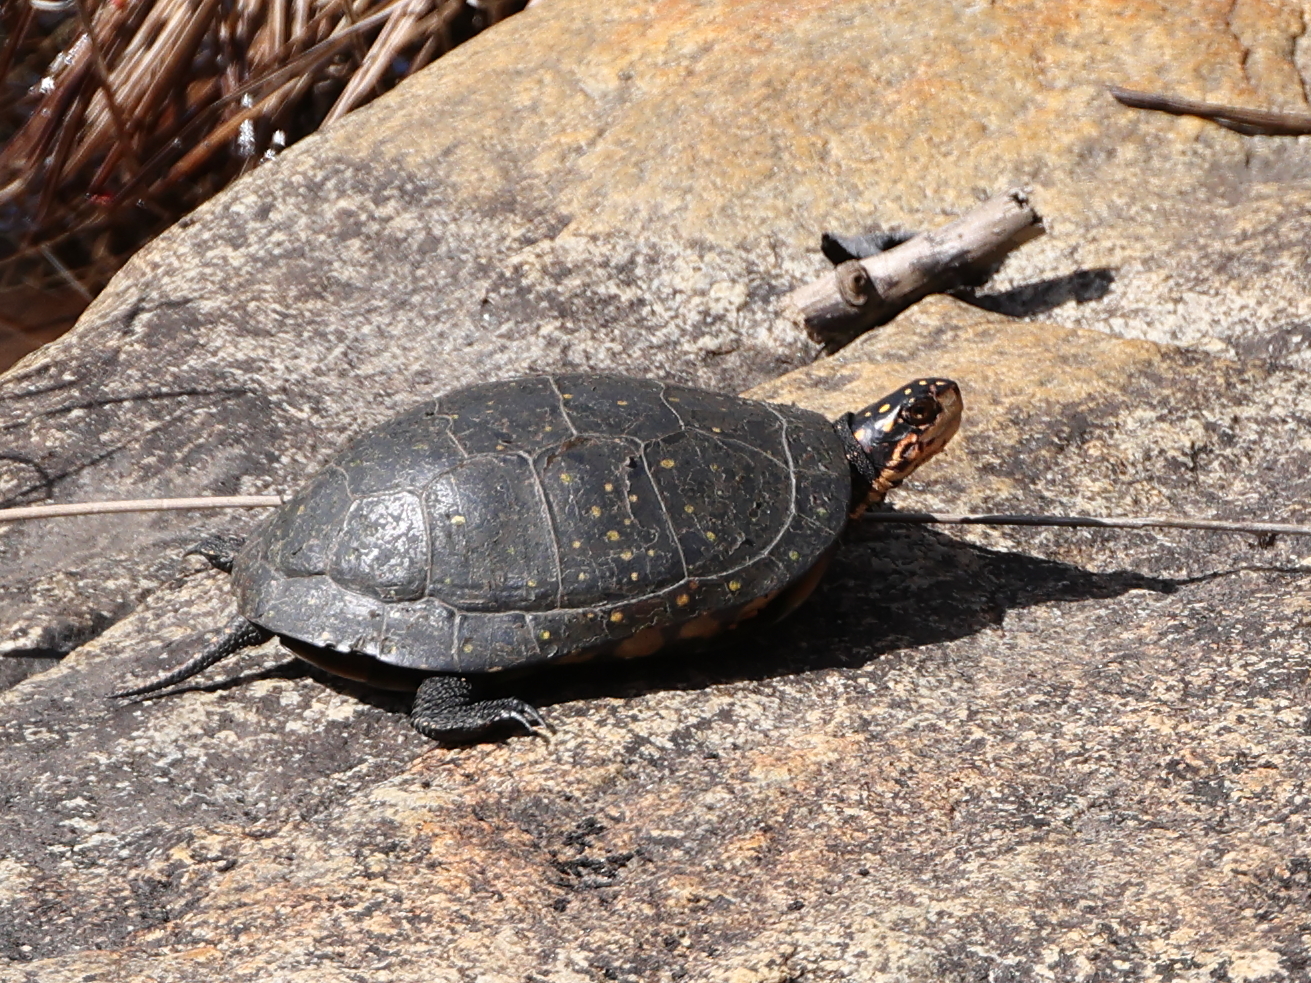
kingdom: Animalia
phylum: Chordata
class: Testudines
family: Emydidae
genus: Clemmys
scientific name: Clemmys guttata
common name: Spotted turtle
